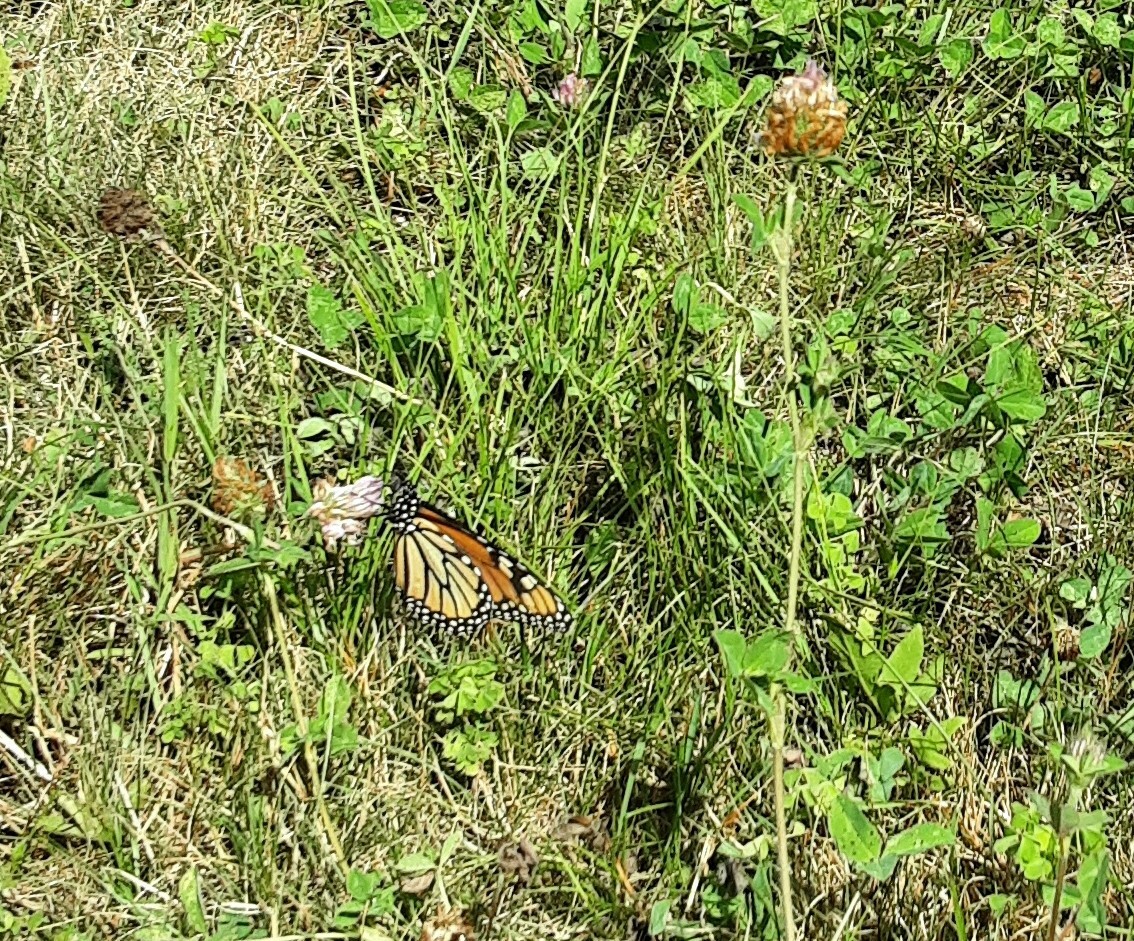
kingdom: Animalia
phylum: Arthropoda
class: Insecta
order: Lepidoptera
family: Nymphalidae
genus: Danaus
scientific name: Danaus plexippus
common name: Monarch
